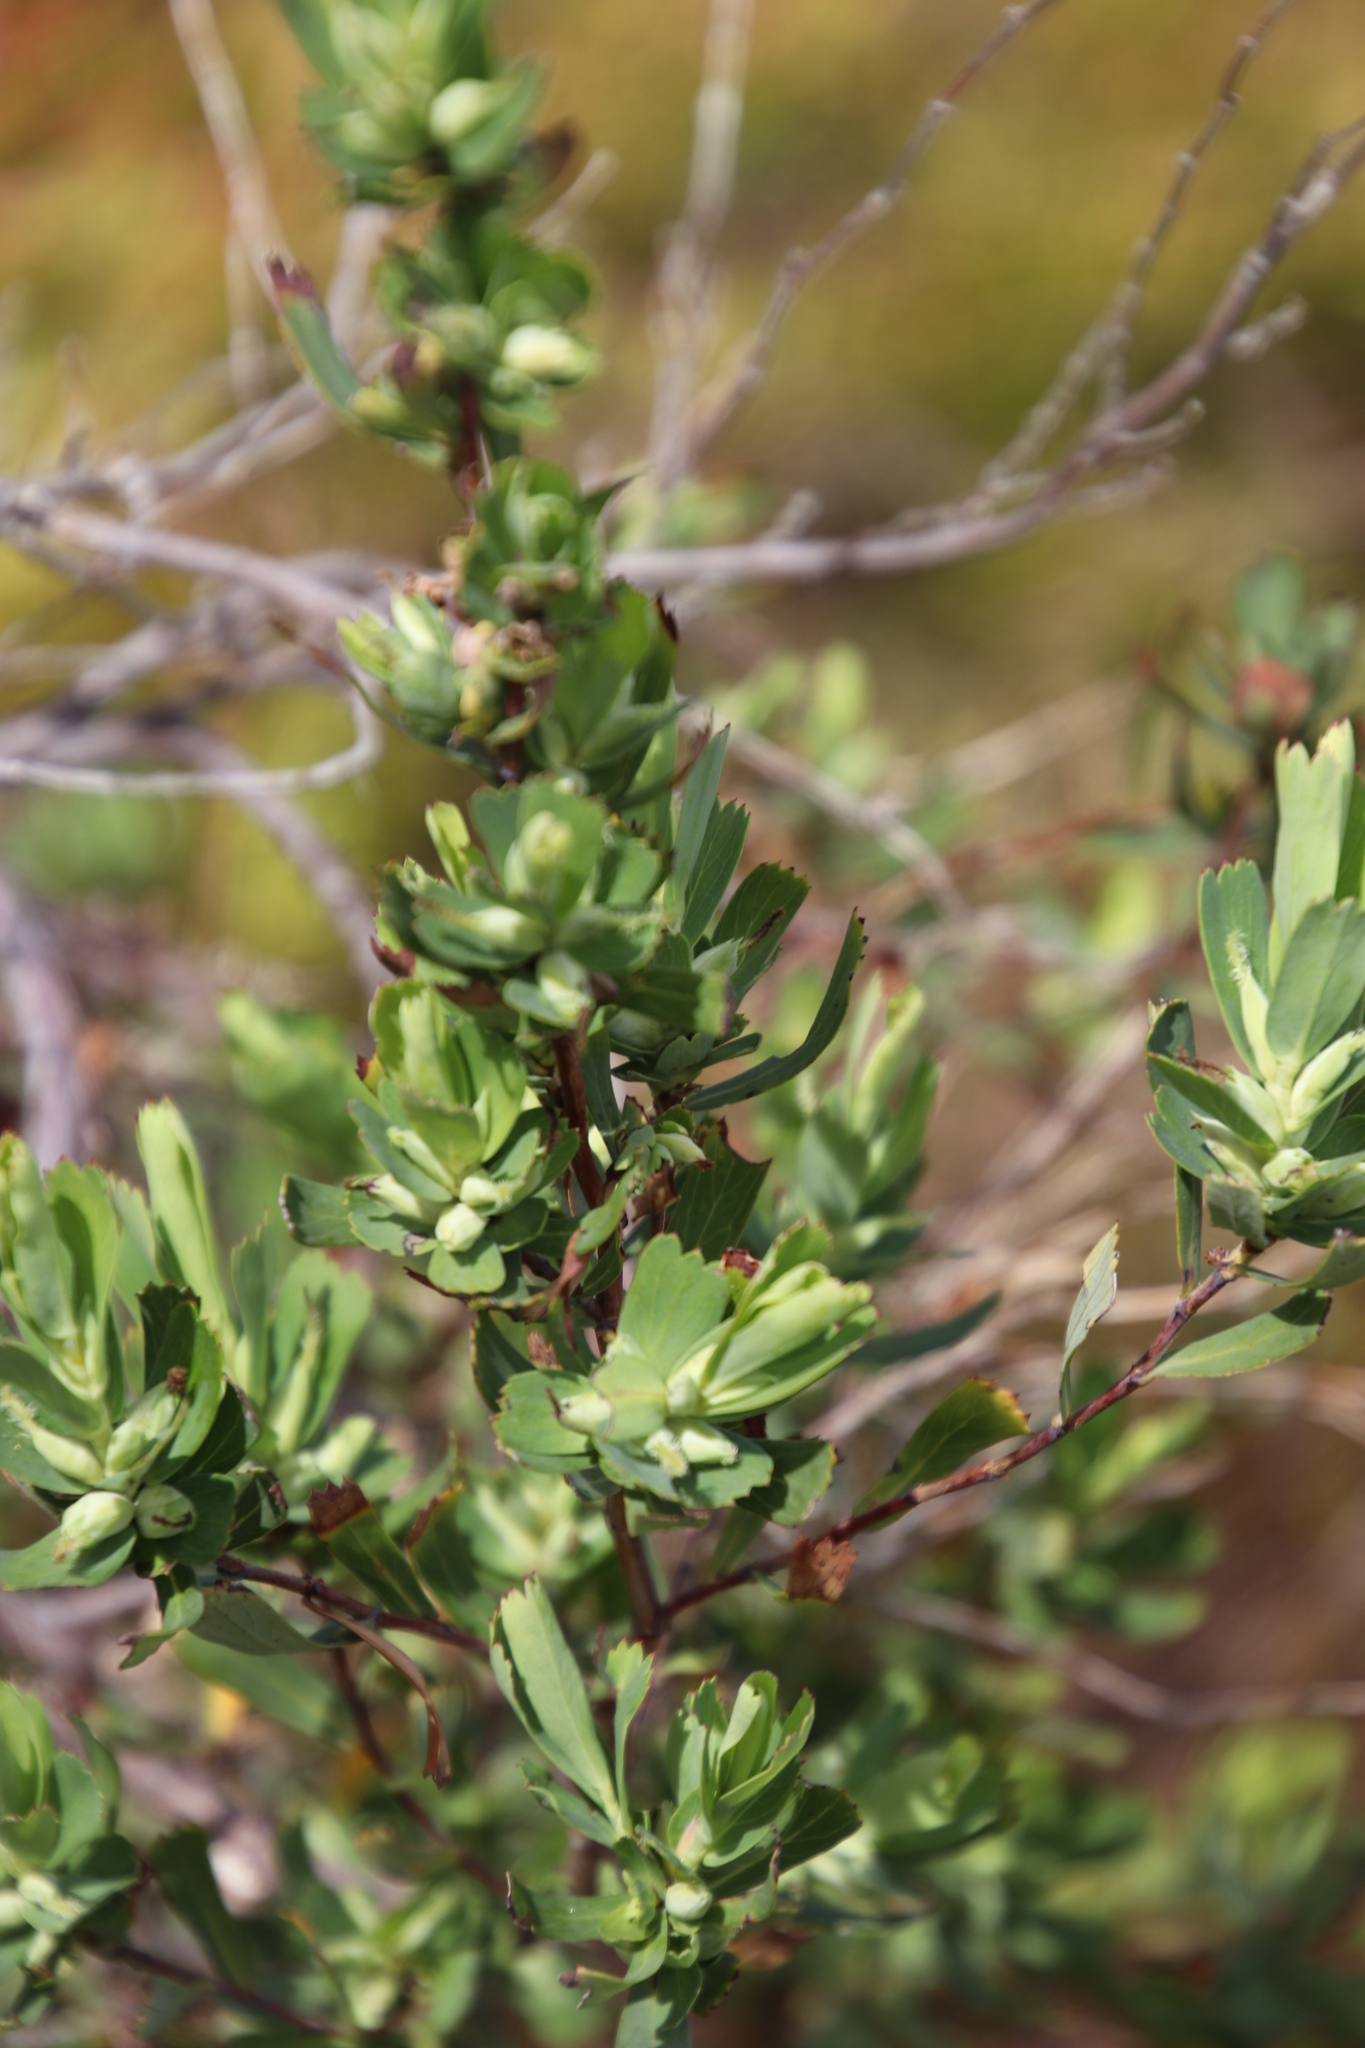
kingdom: Plantae
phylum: Tracheophyta
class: Magnoliopsida
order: Rosales
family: Rosaceae
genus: Cliffortia
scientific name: Cliffortia cuneata
